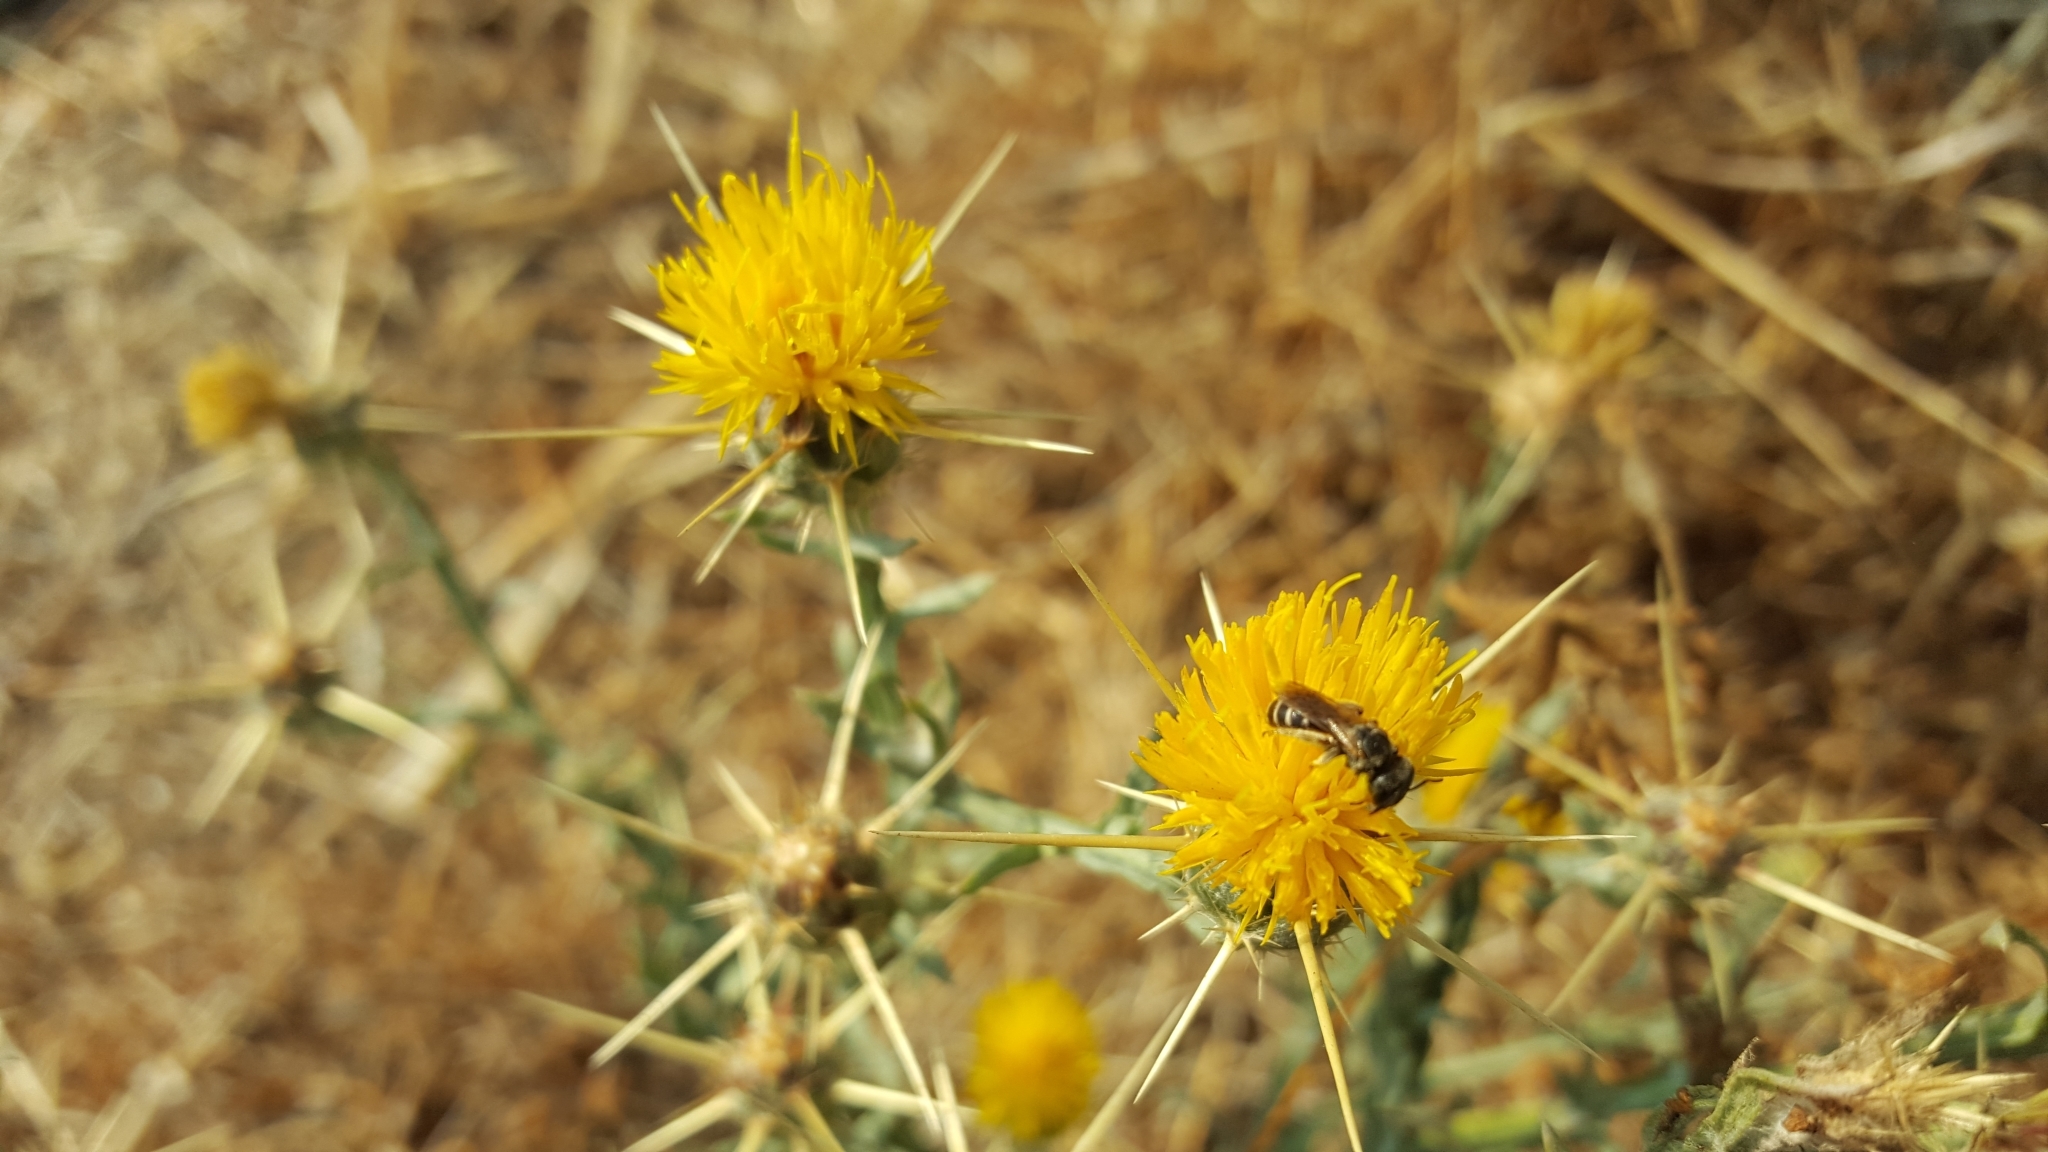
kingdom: Plantae
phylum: Tracheophyta
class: Magnoliopsida
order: Asterales
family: Asteraceae
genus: Centaurea
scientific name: Centaurea solstitialis
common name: Yellow star-thistle
